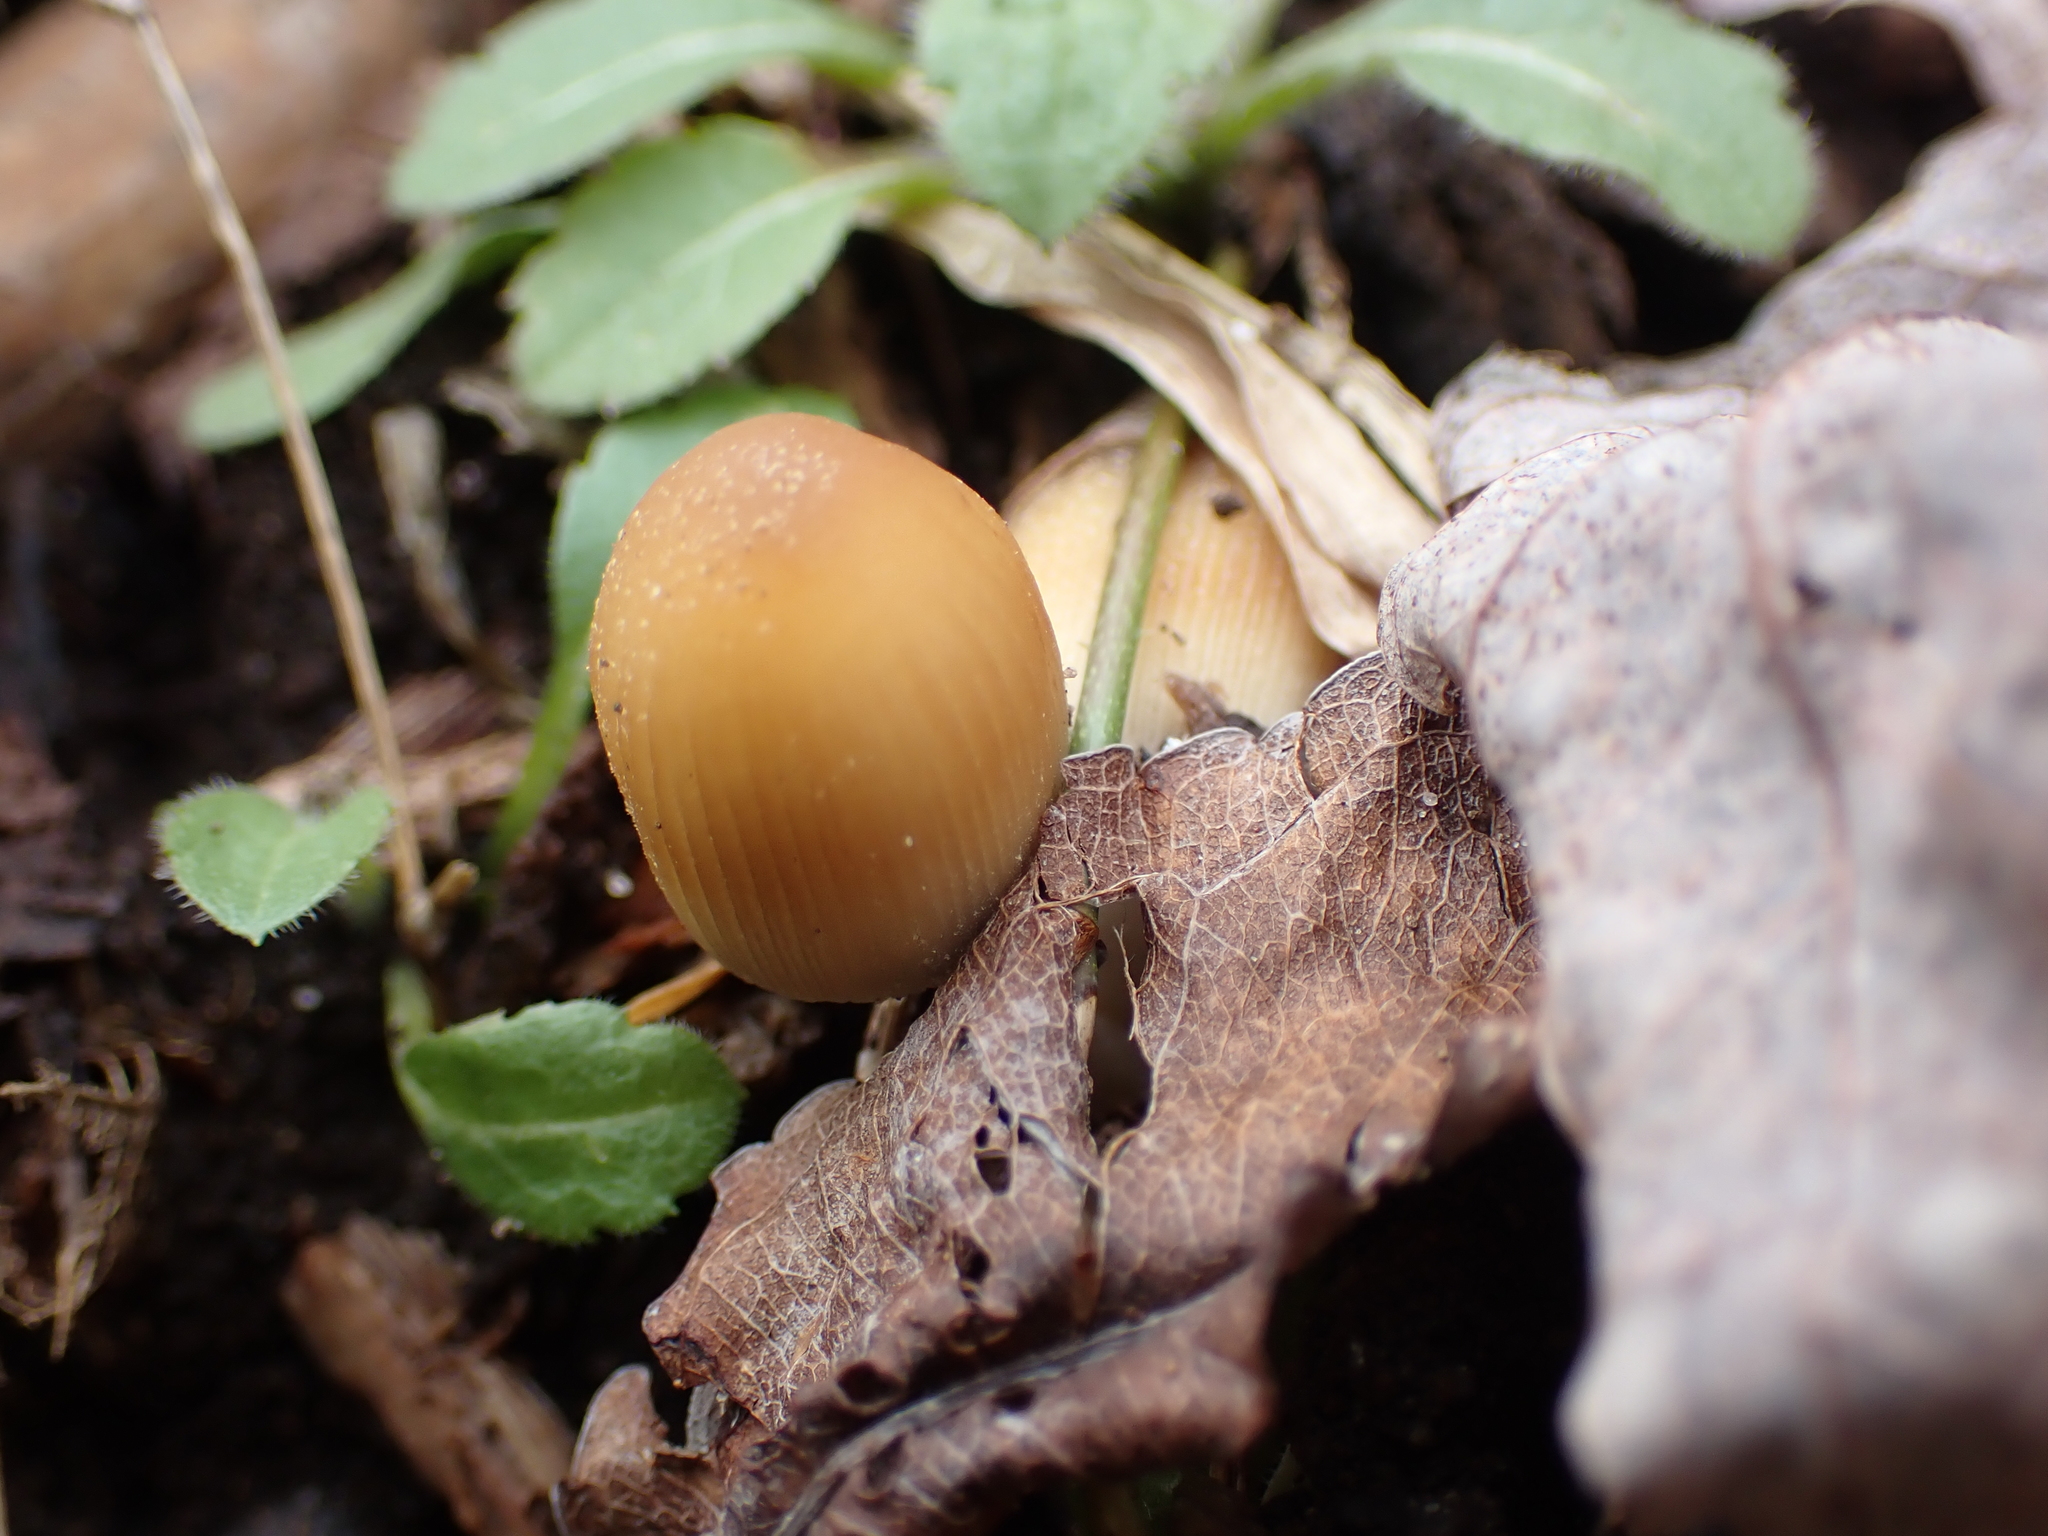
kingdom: Fungi
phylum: Basidiomycota
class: Agaricomycetes
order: Agaricales
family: Psathyrellaceae
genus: Coprinellus
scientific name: Coprinellus micaceus
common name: Glistening ink-cap
